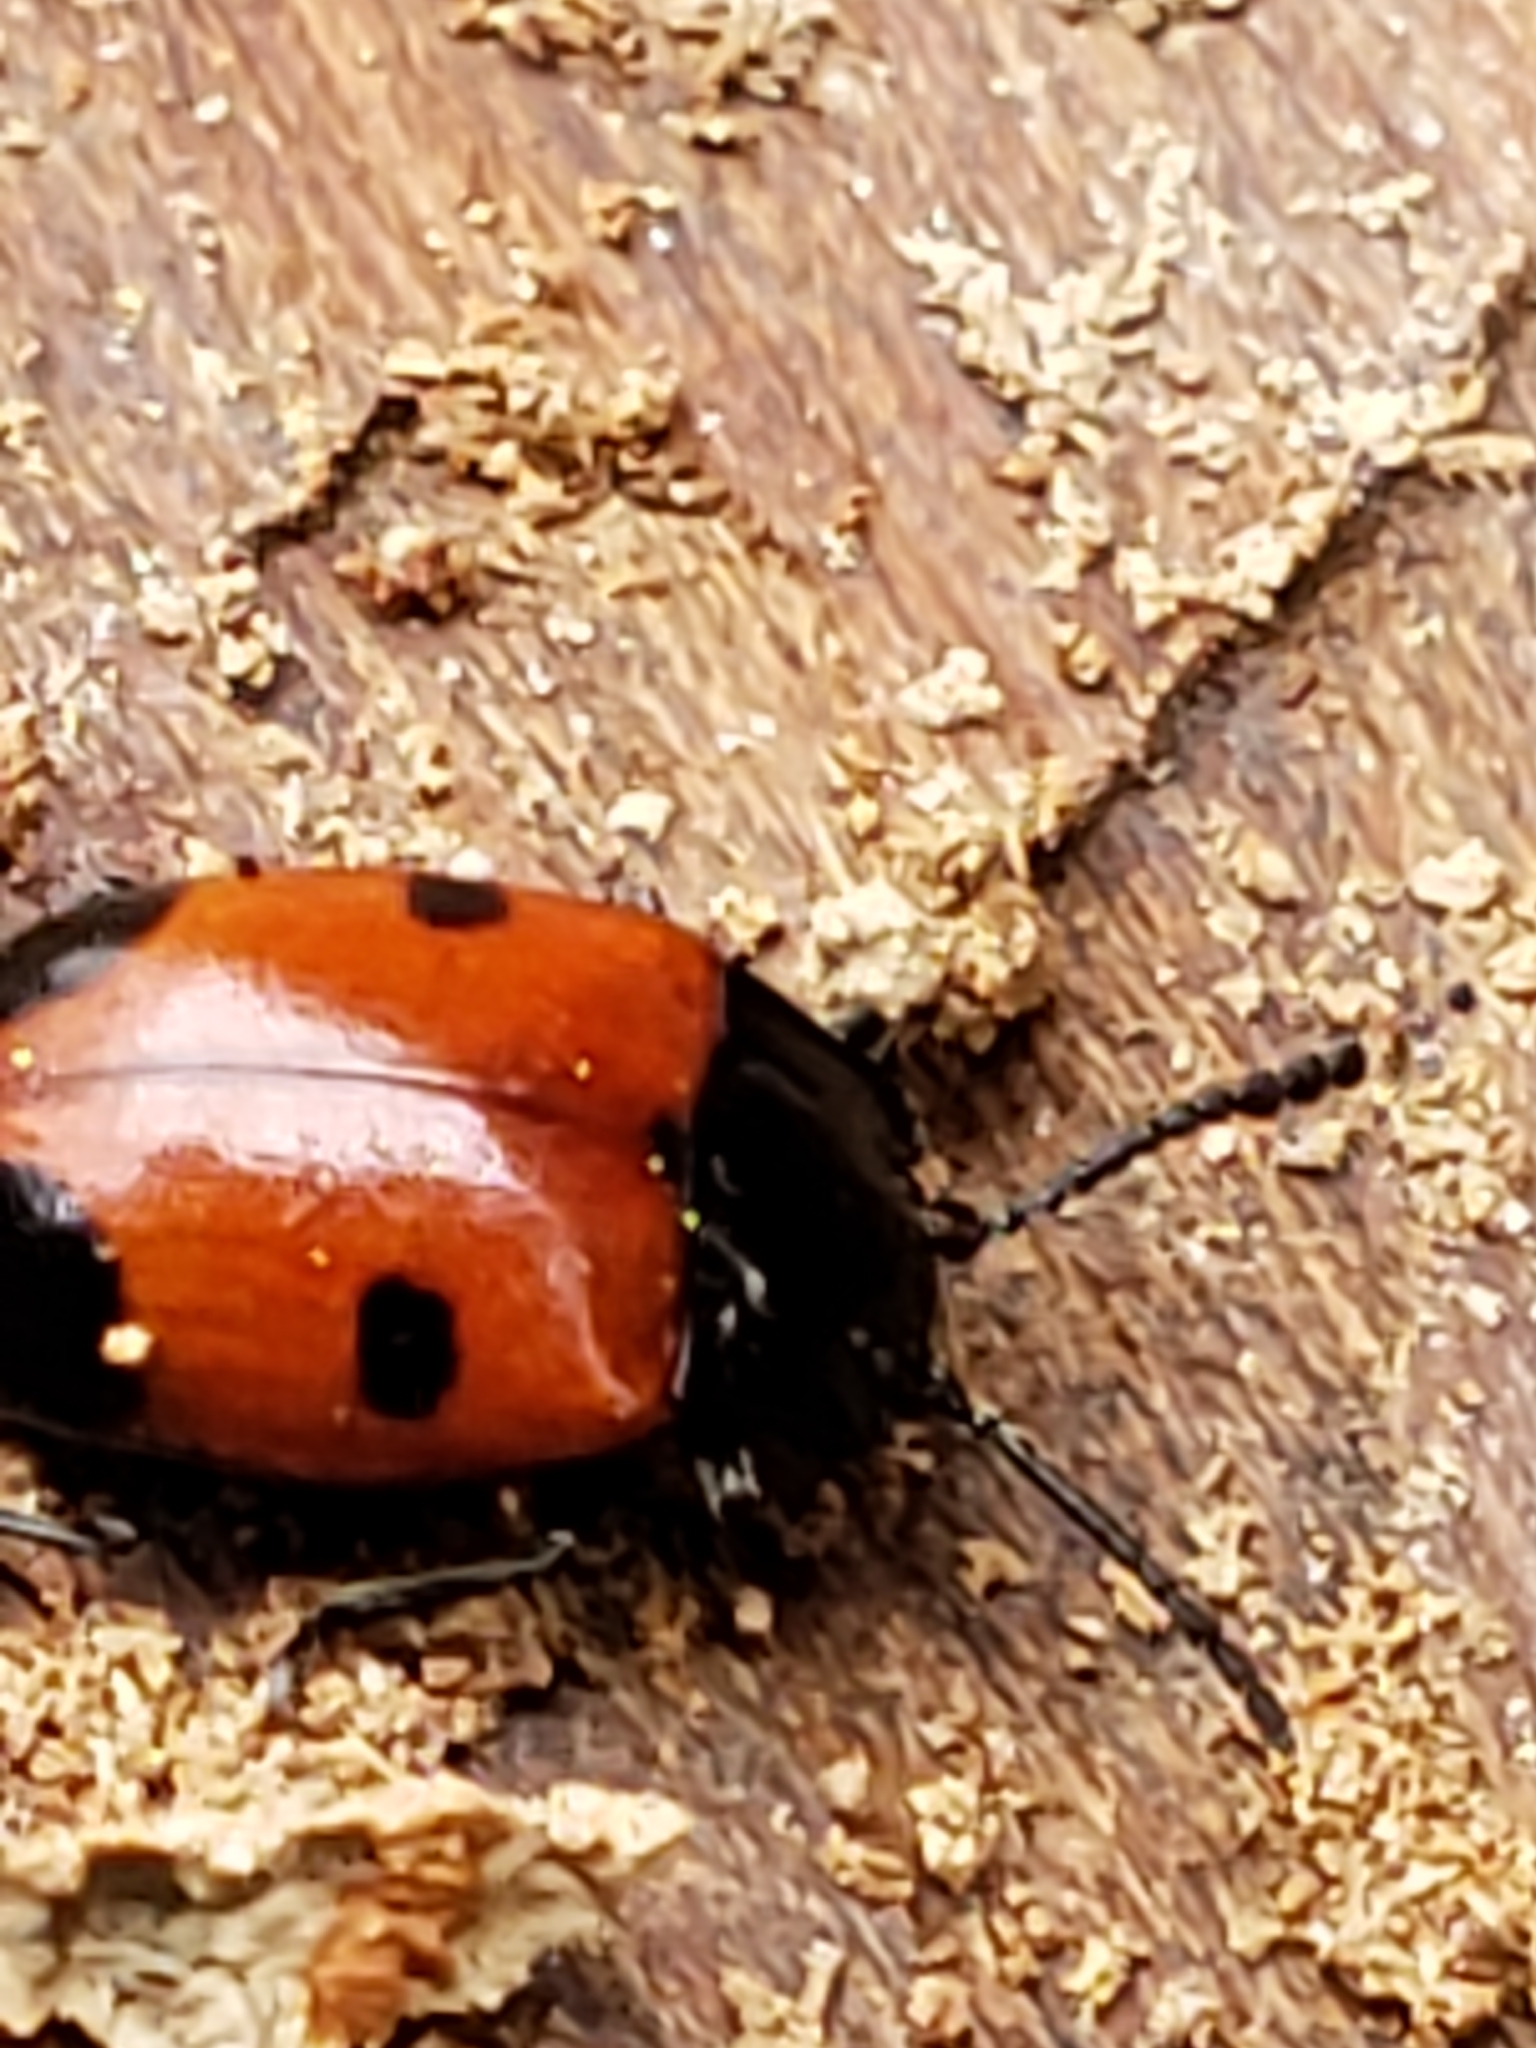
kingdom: Animalia
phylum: Arthropoda
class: Insecta
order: Coleoptera
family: Endomychidae
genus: Endomychus
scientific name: Endomychus biguttatus
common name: Handsome fungus beetle
